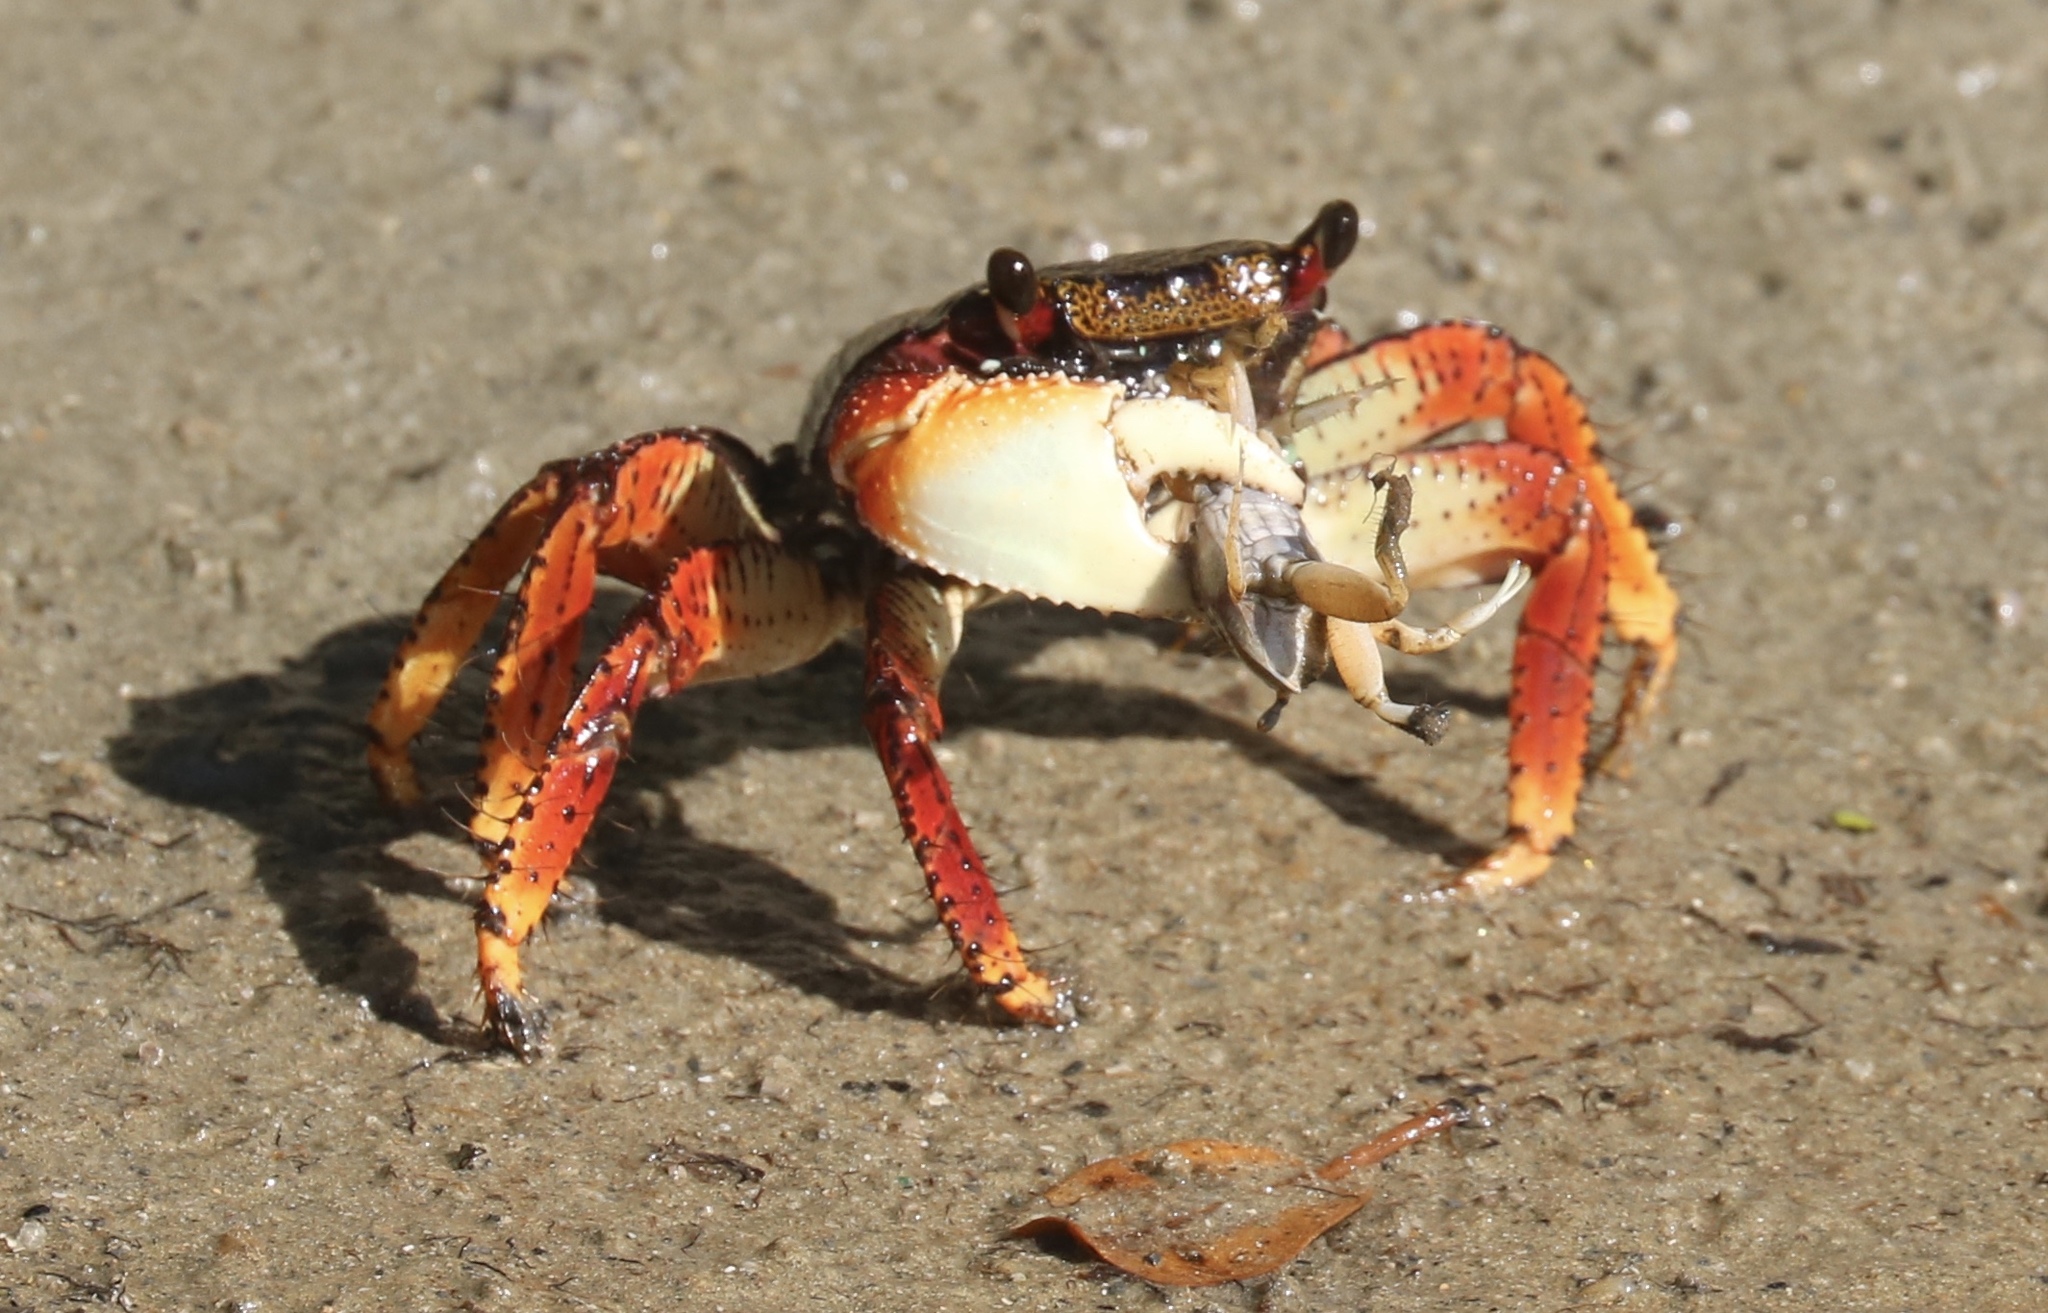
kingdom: Animalia
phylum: Arthropoda
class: Malacostraca
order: Decapoda
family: Grapsidae
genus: Goniopsis
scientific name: Goniopsis cruentata
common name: Mangrove crab
